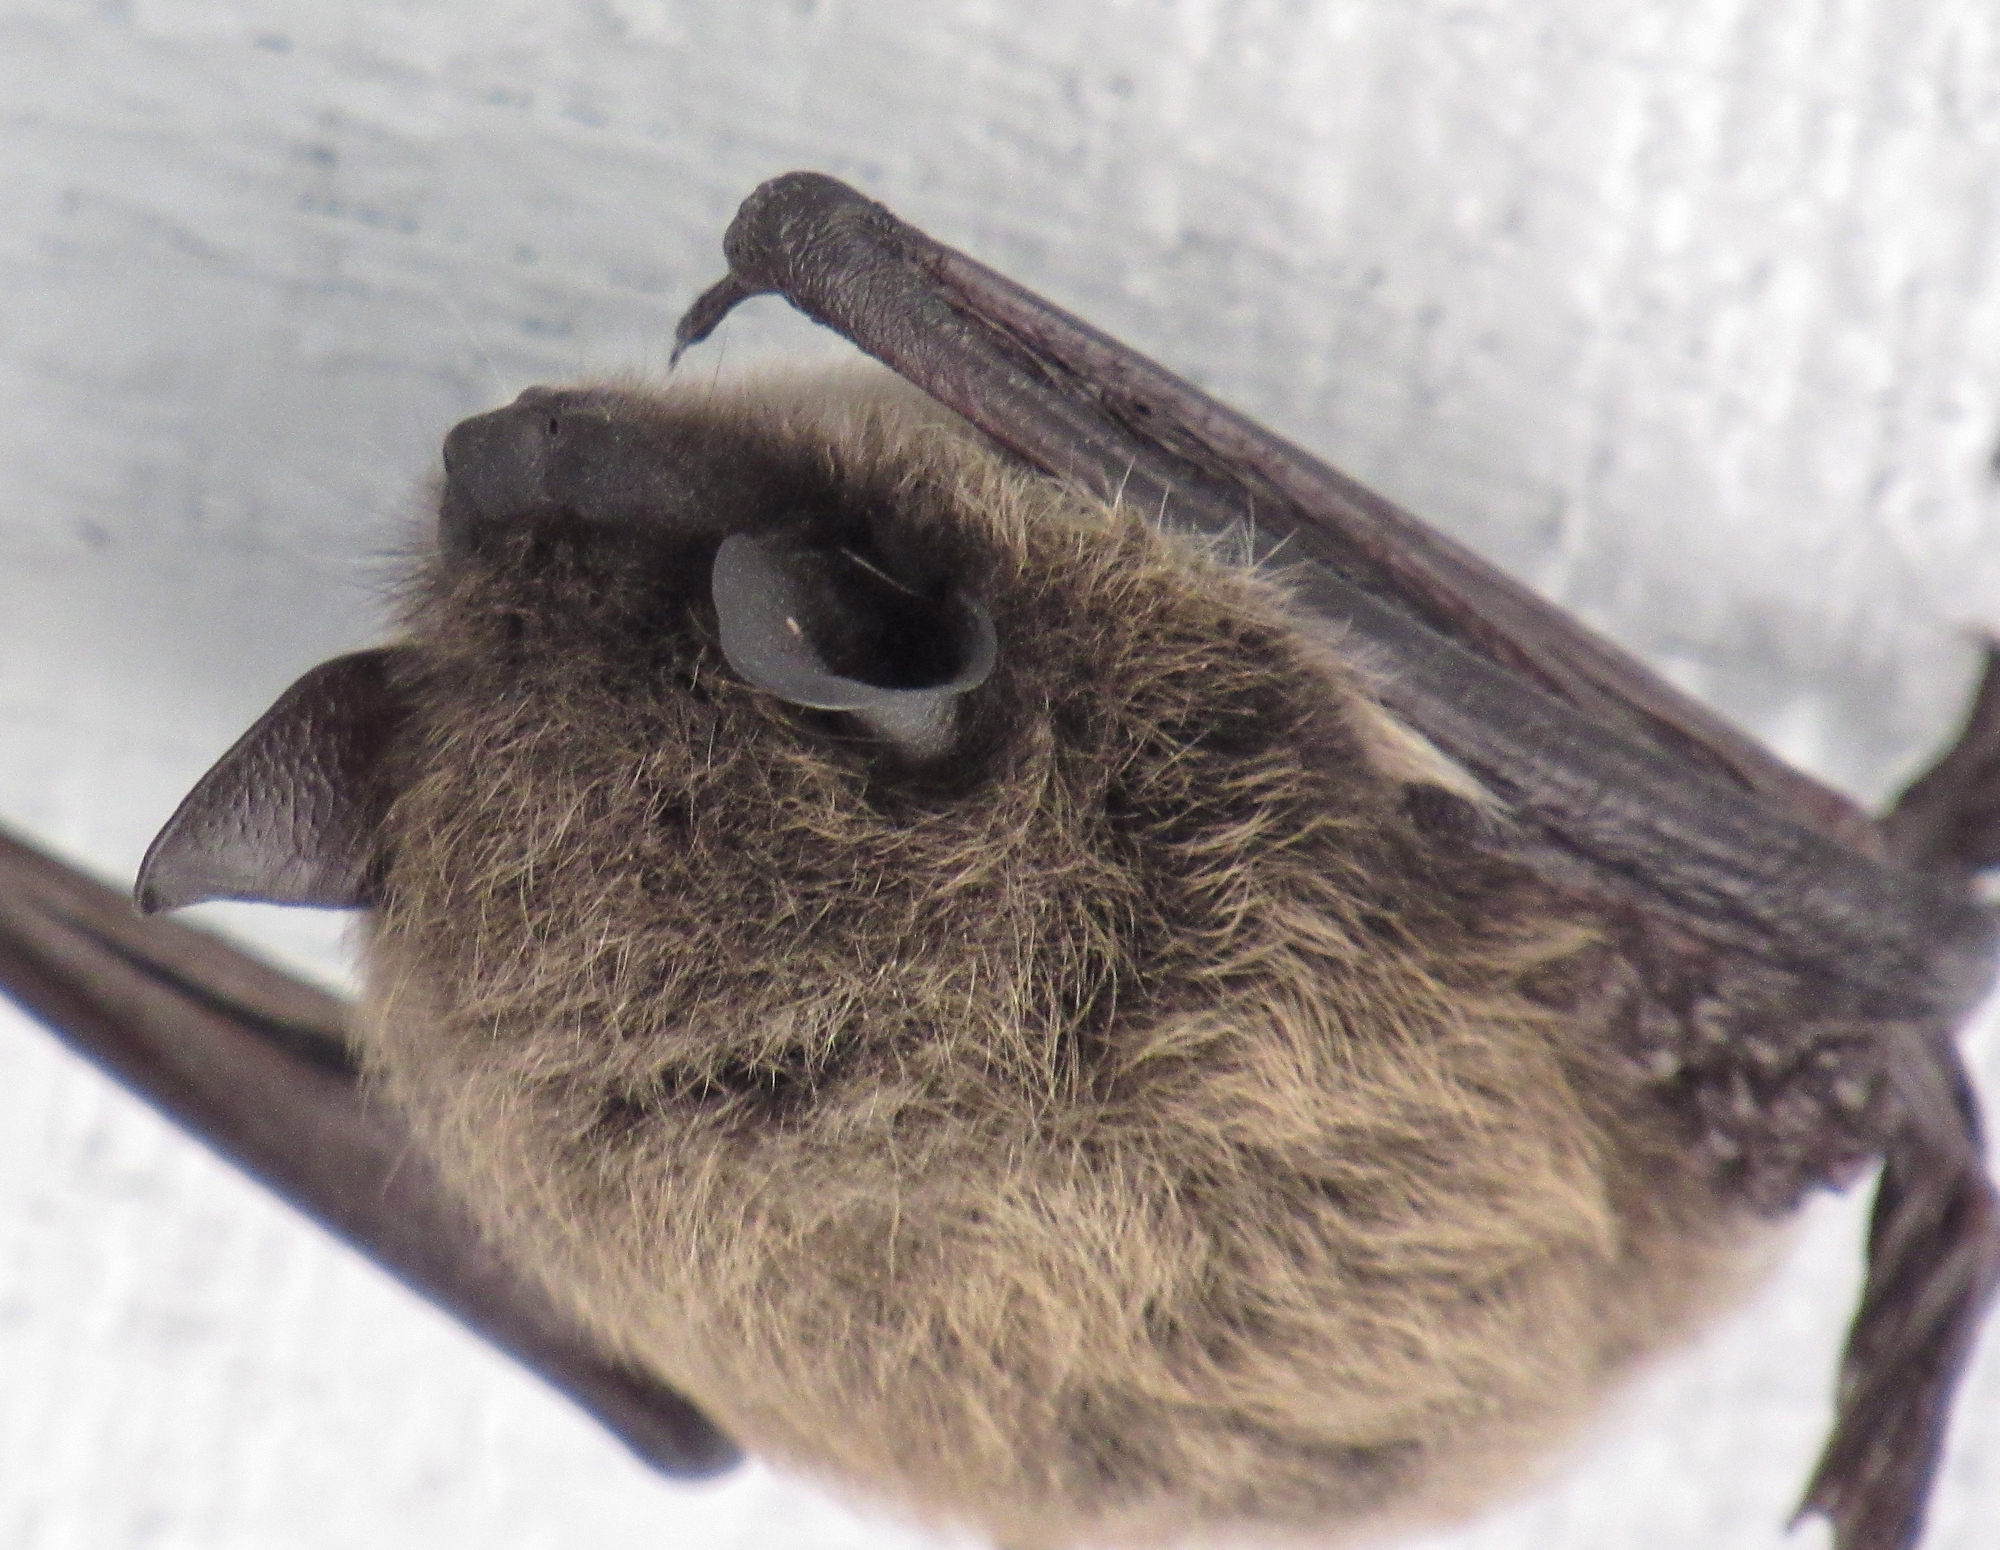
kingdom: Animalia
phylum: Chordata
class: Mammalia
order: Chiroptera
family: Vespertilionidae
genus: Myotis
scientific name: Myotis yumanensis
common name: Yuma myotis
